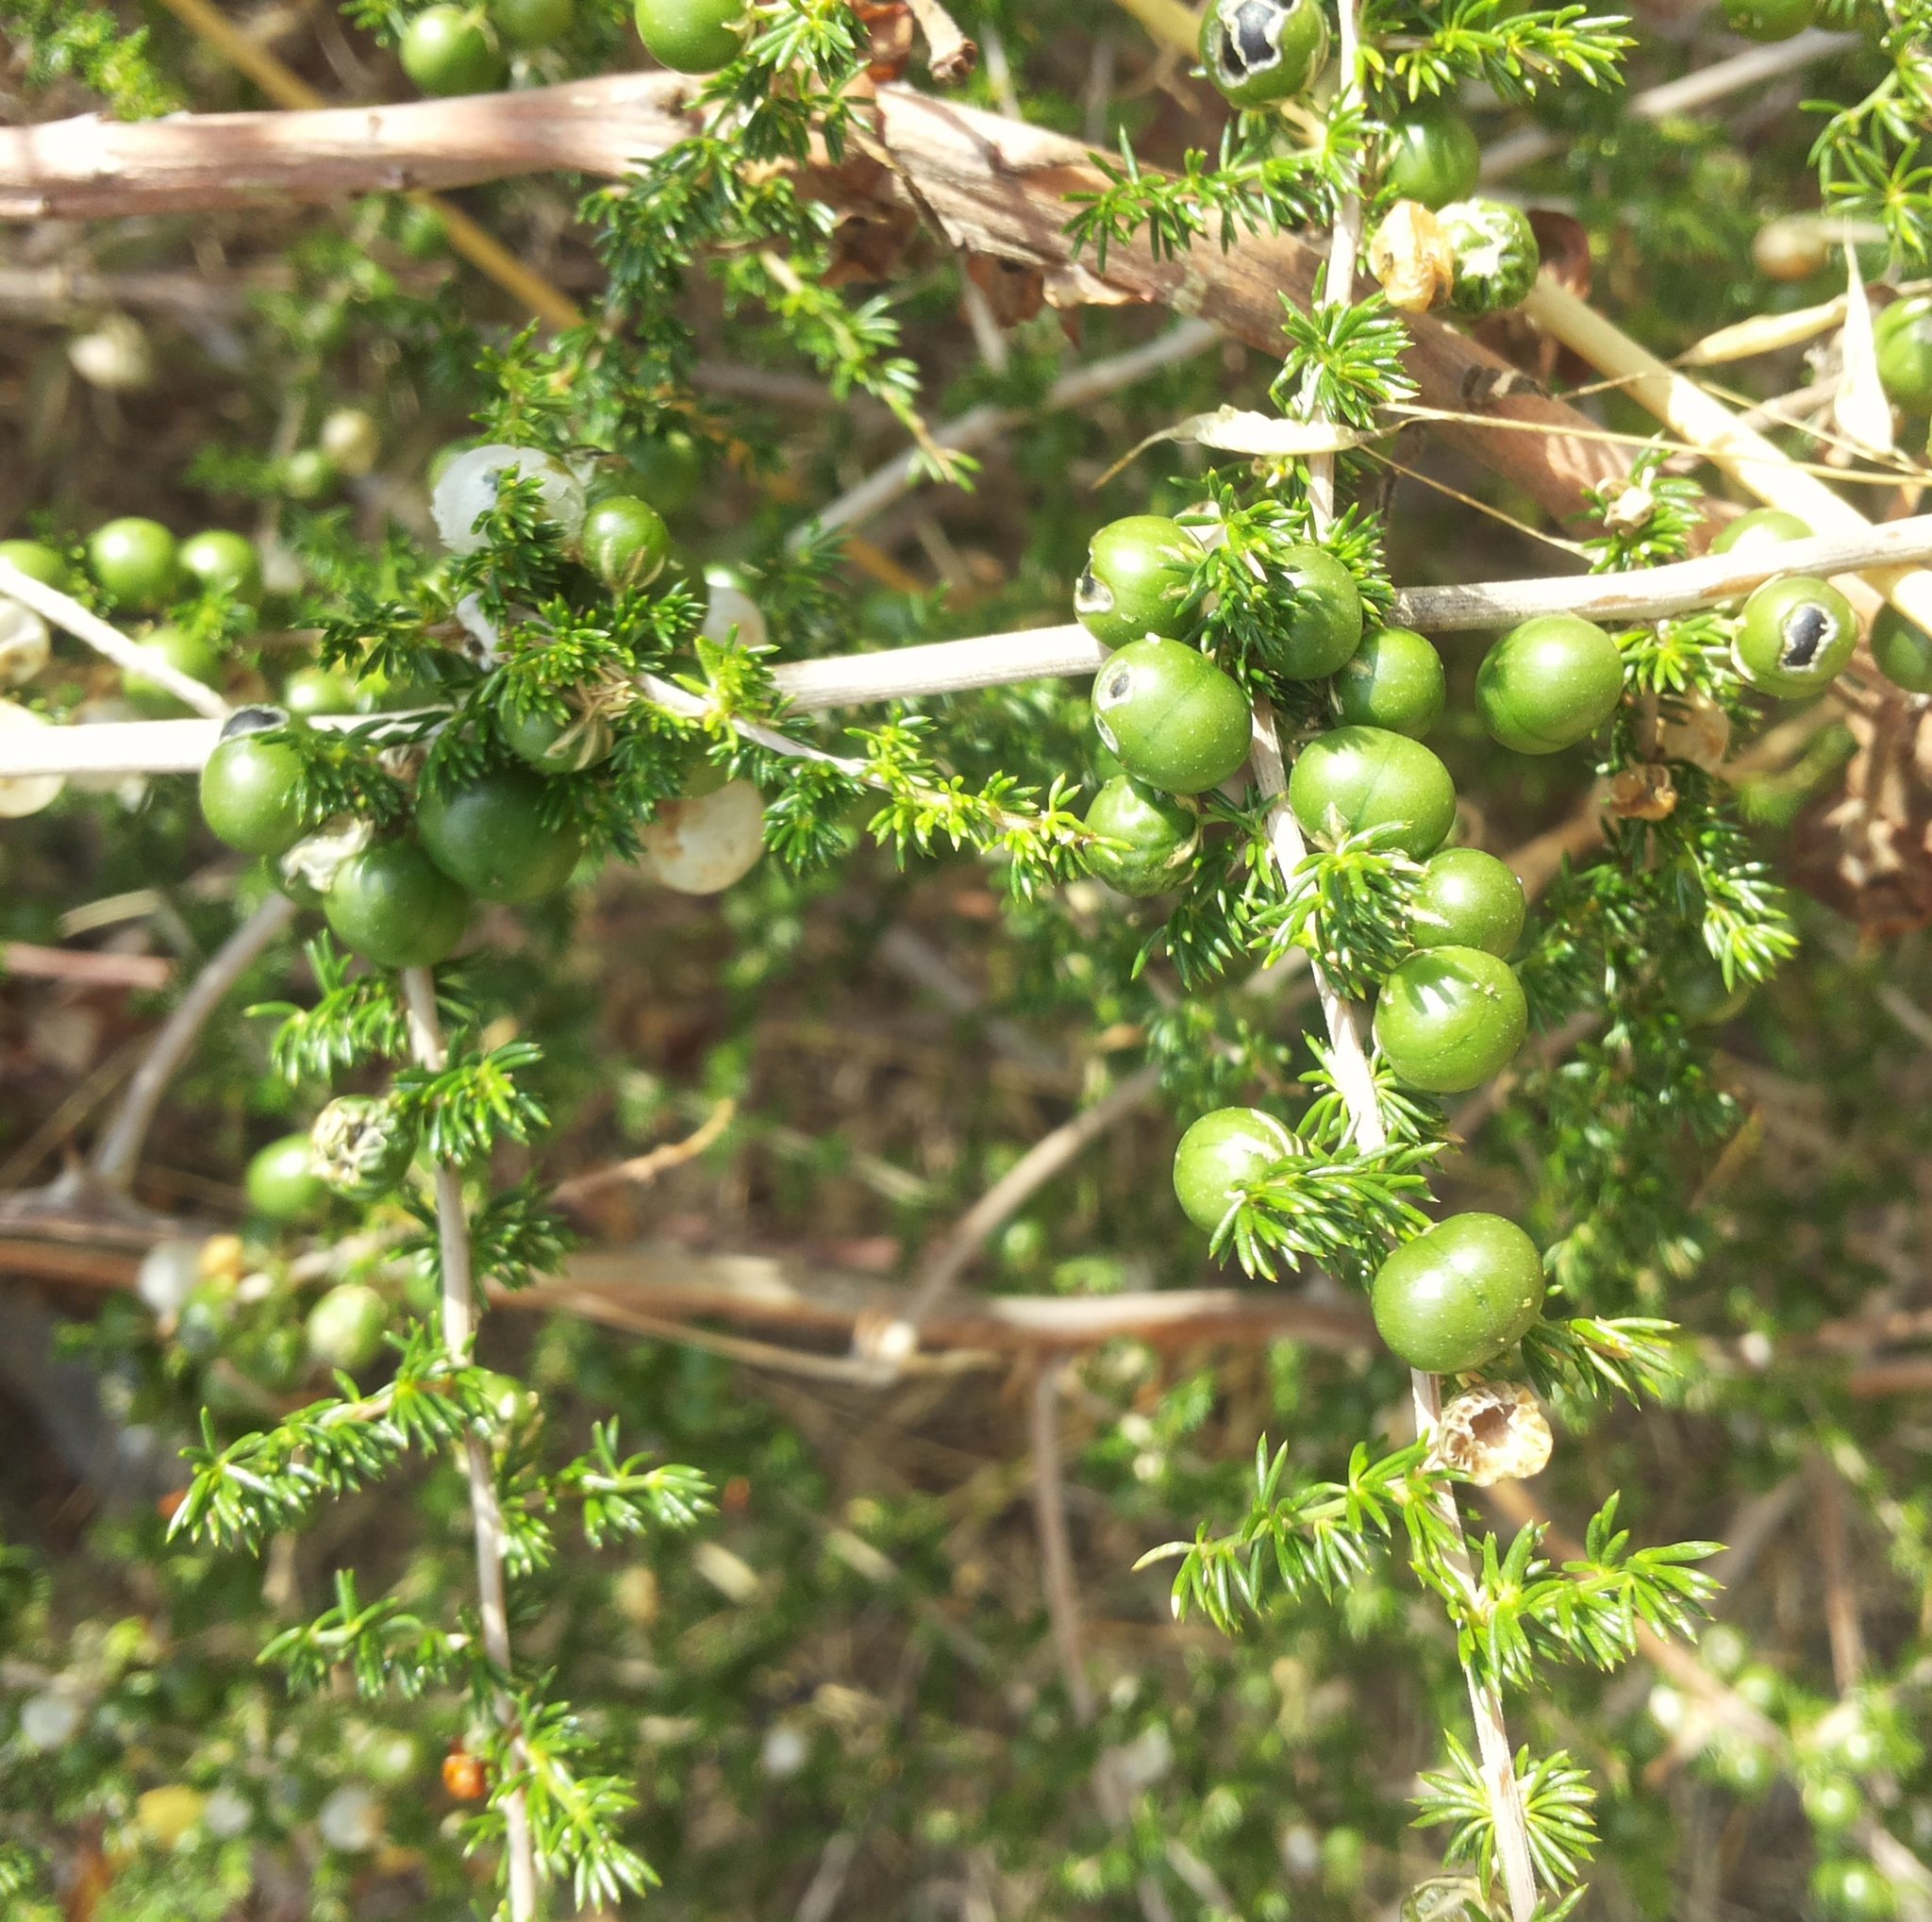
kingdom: Plantae
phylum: Tracheophyta
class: Liliopsida
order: Asparagales
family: Asparagaceae
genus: Asparagus
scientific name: Asparagus acutifolius
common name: Wild asparagus
